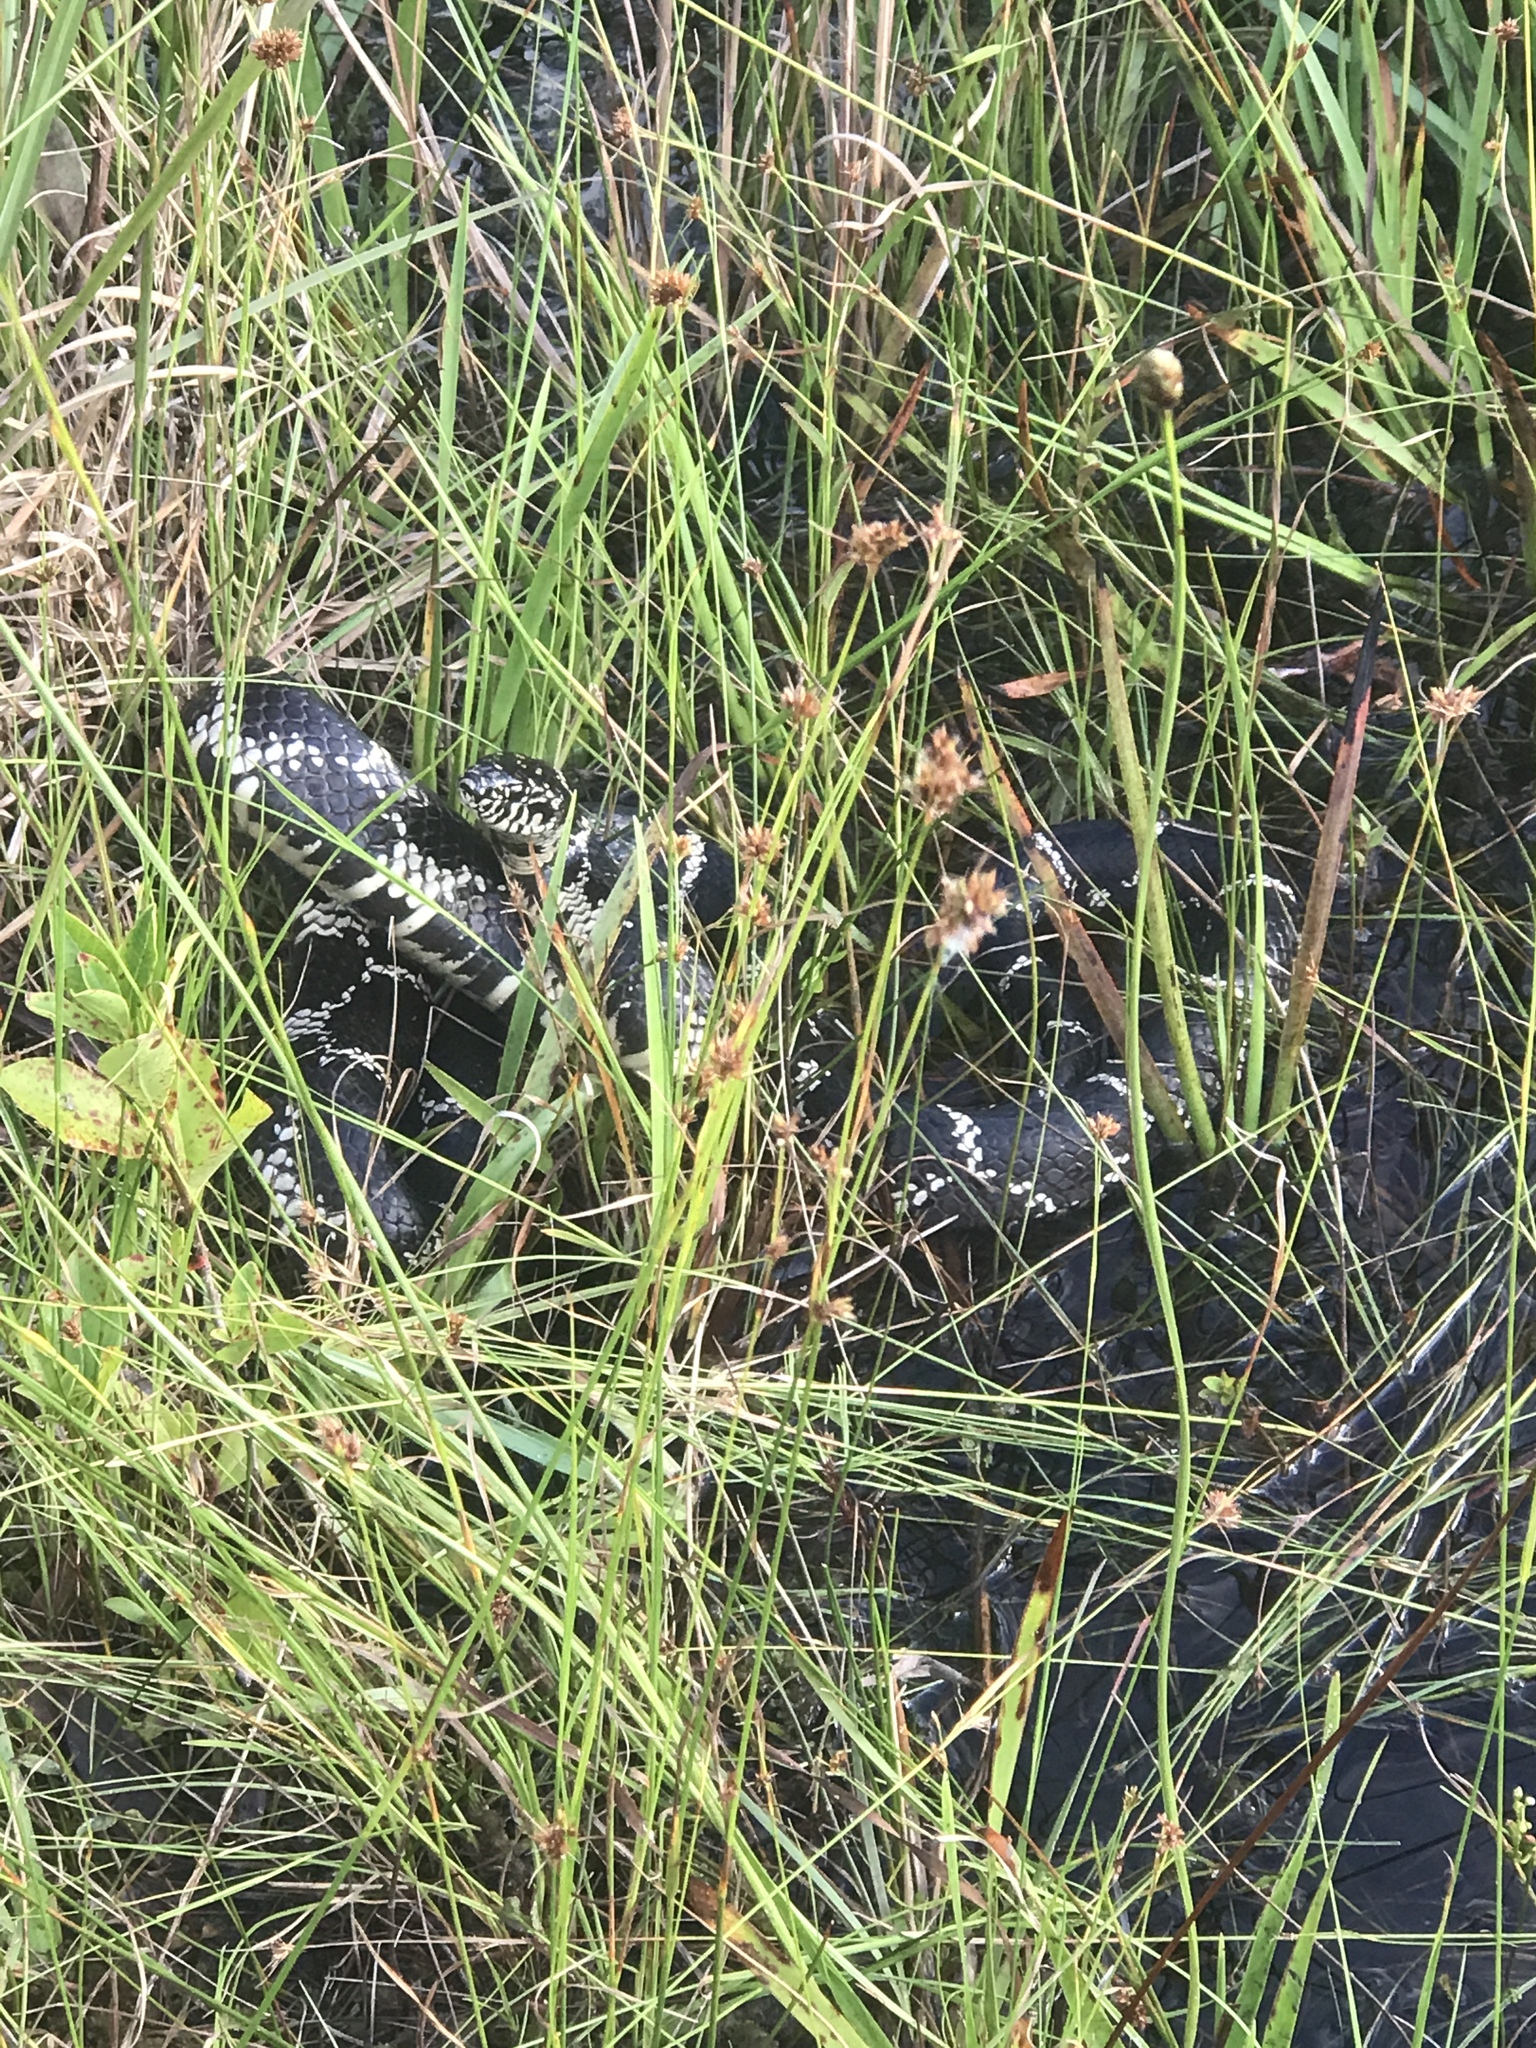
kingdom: Animalia
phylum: Chordata
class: Squamata
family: Colubridae
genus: Lampropeltis
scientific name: Lampropeltis getula
